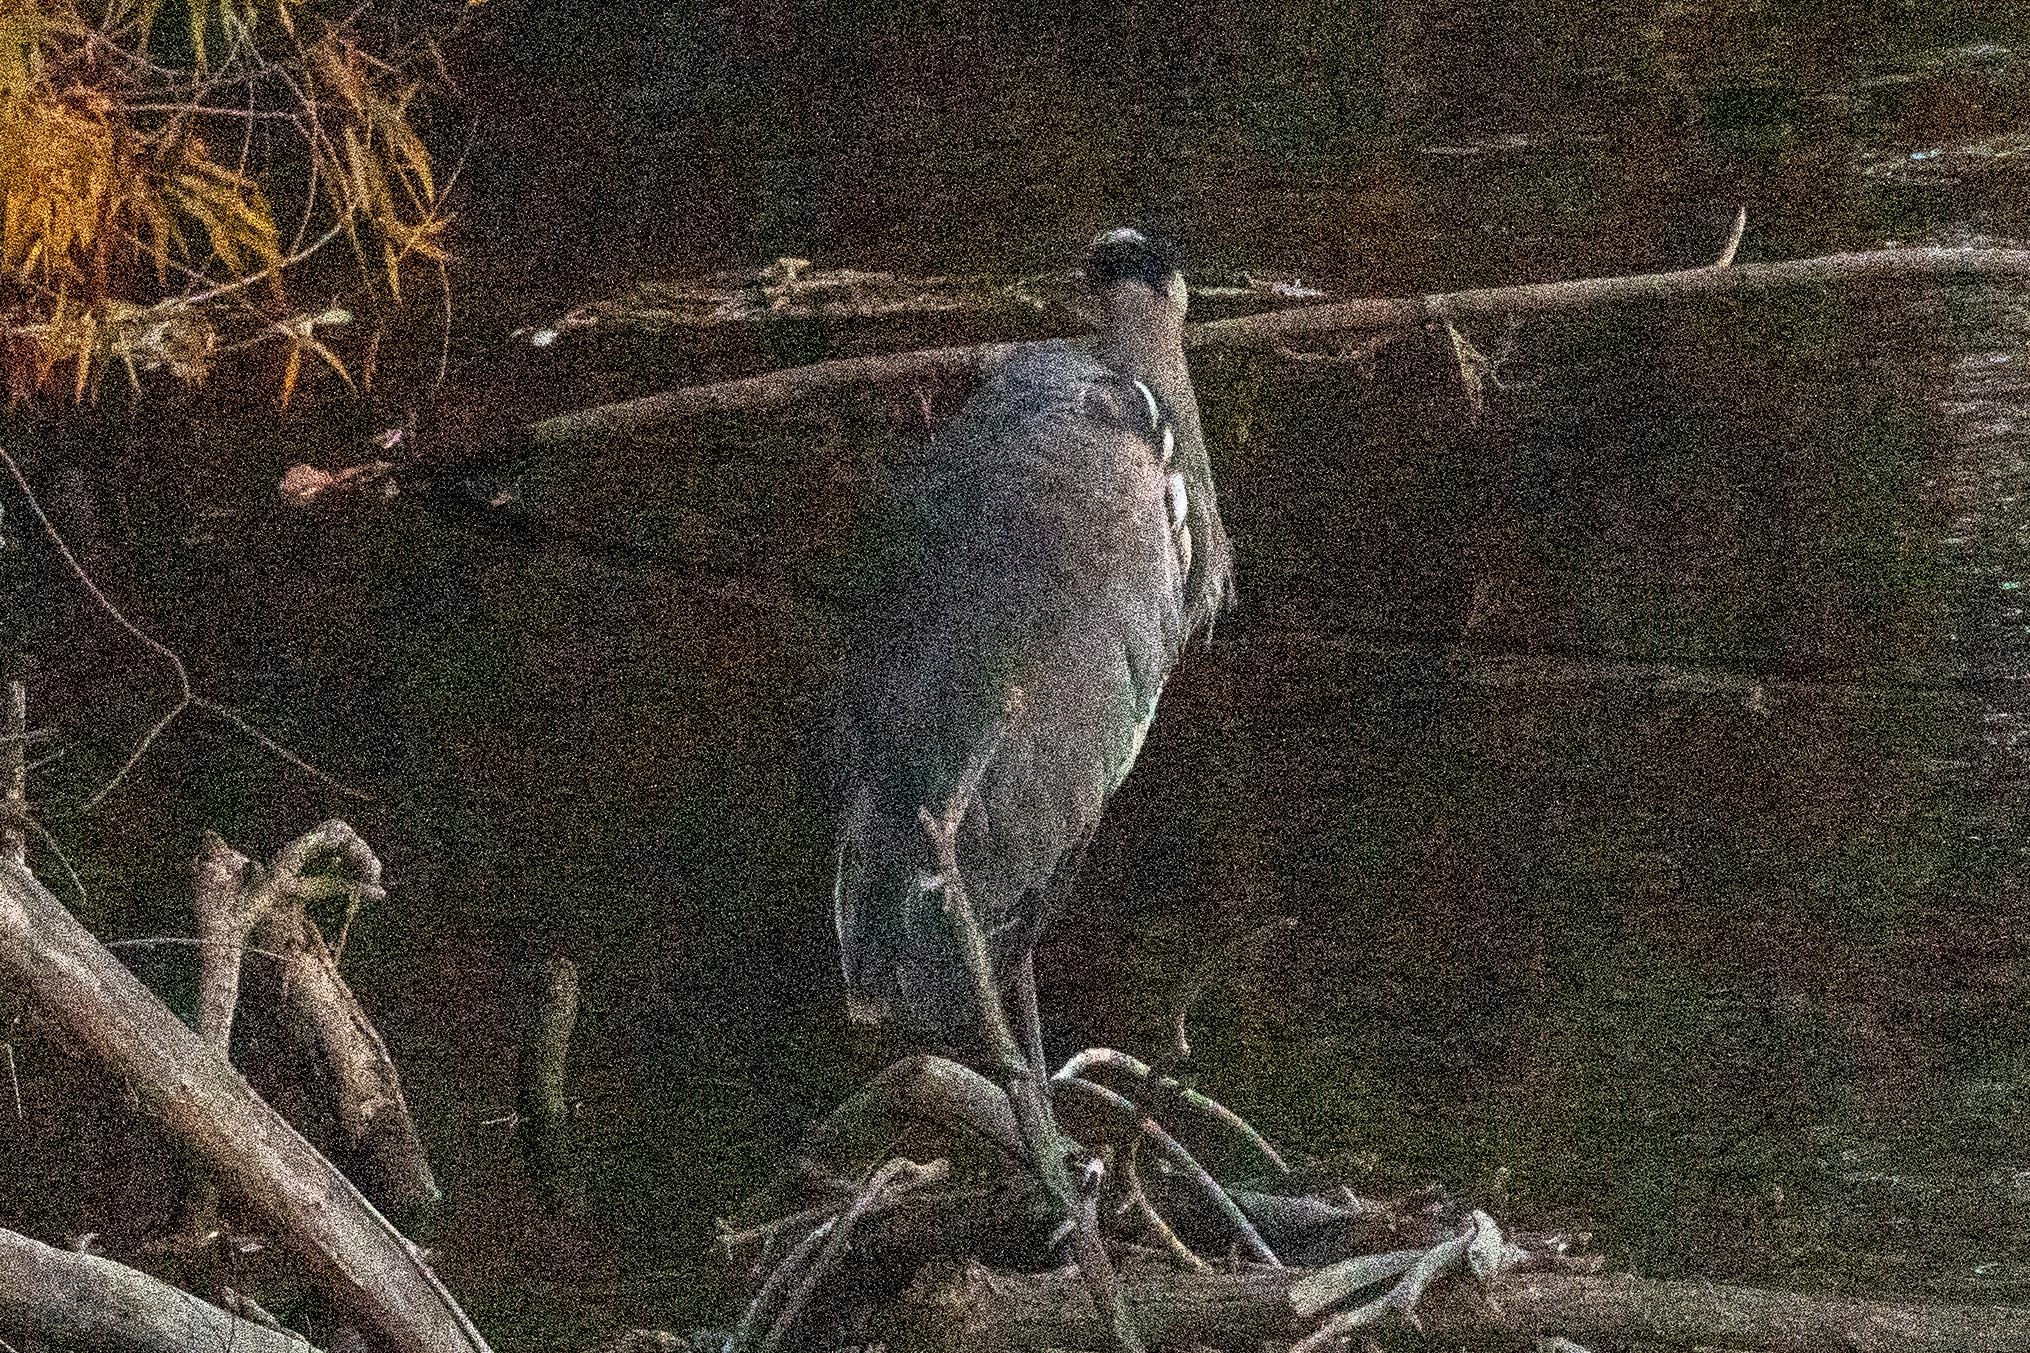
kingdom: Animalia
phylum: Chordata
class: Aves
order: Pelecaniformes
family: Ardeidae
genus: Ardea
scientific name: Ardea herodias
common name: Great blue heron
